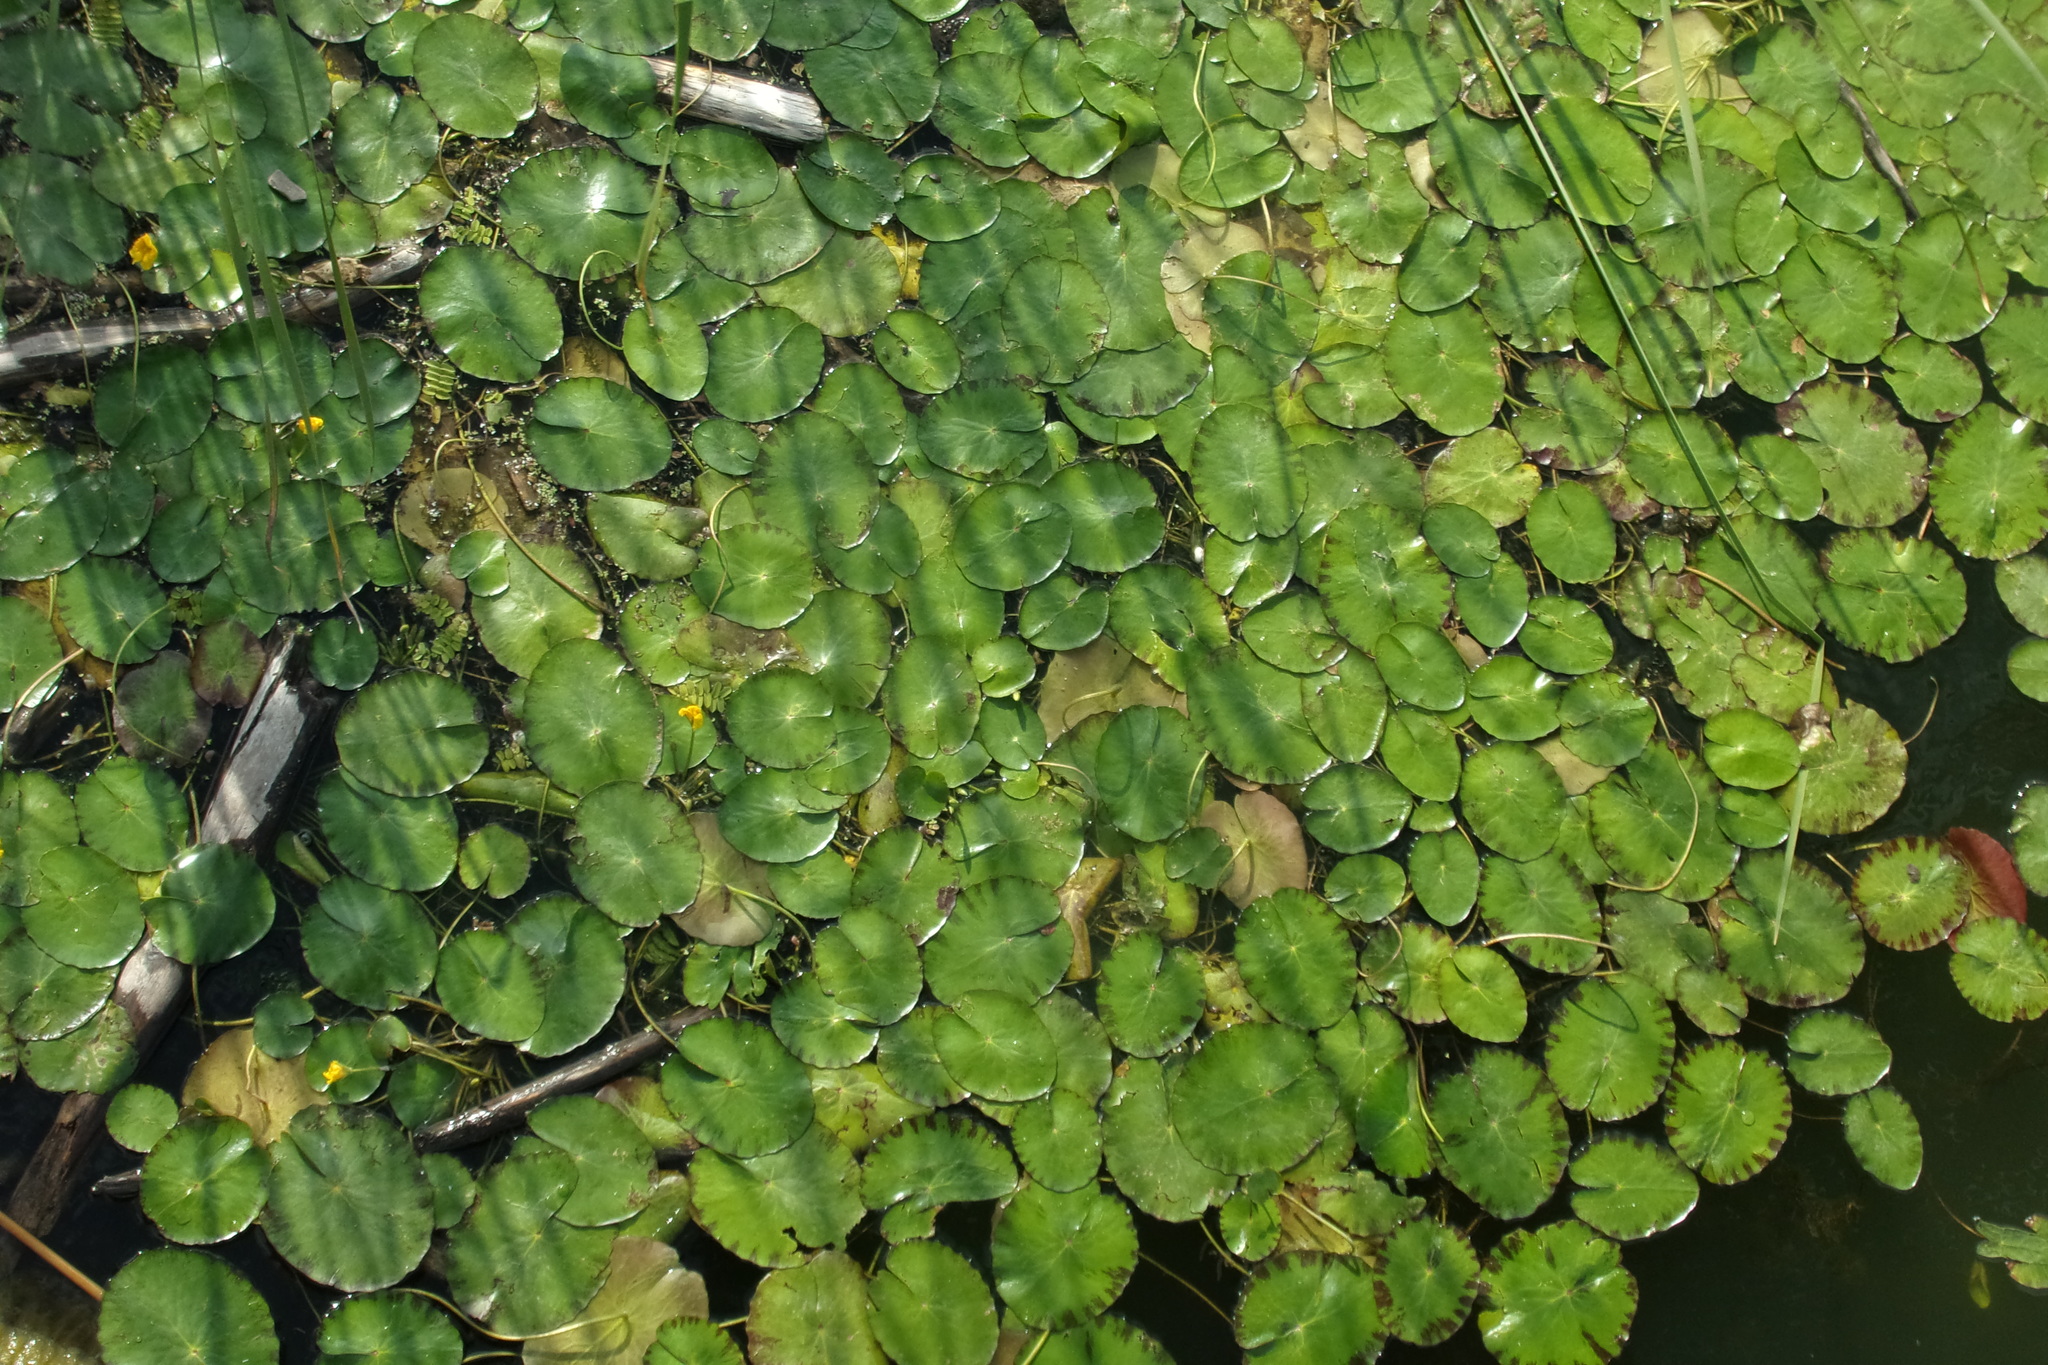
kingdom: Plantae
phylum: Tracheophyta
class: Magnoliopsida
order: Asterales
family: Menyanthaceae
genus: Nymphoides
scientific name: Nymphoides peltata
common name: Fringed water-lily
